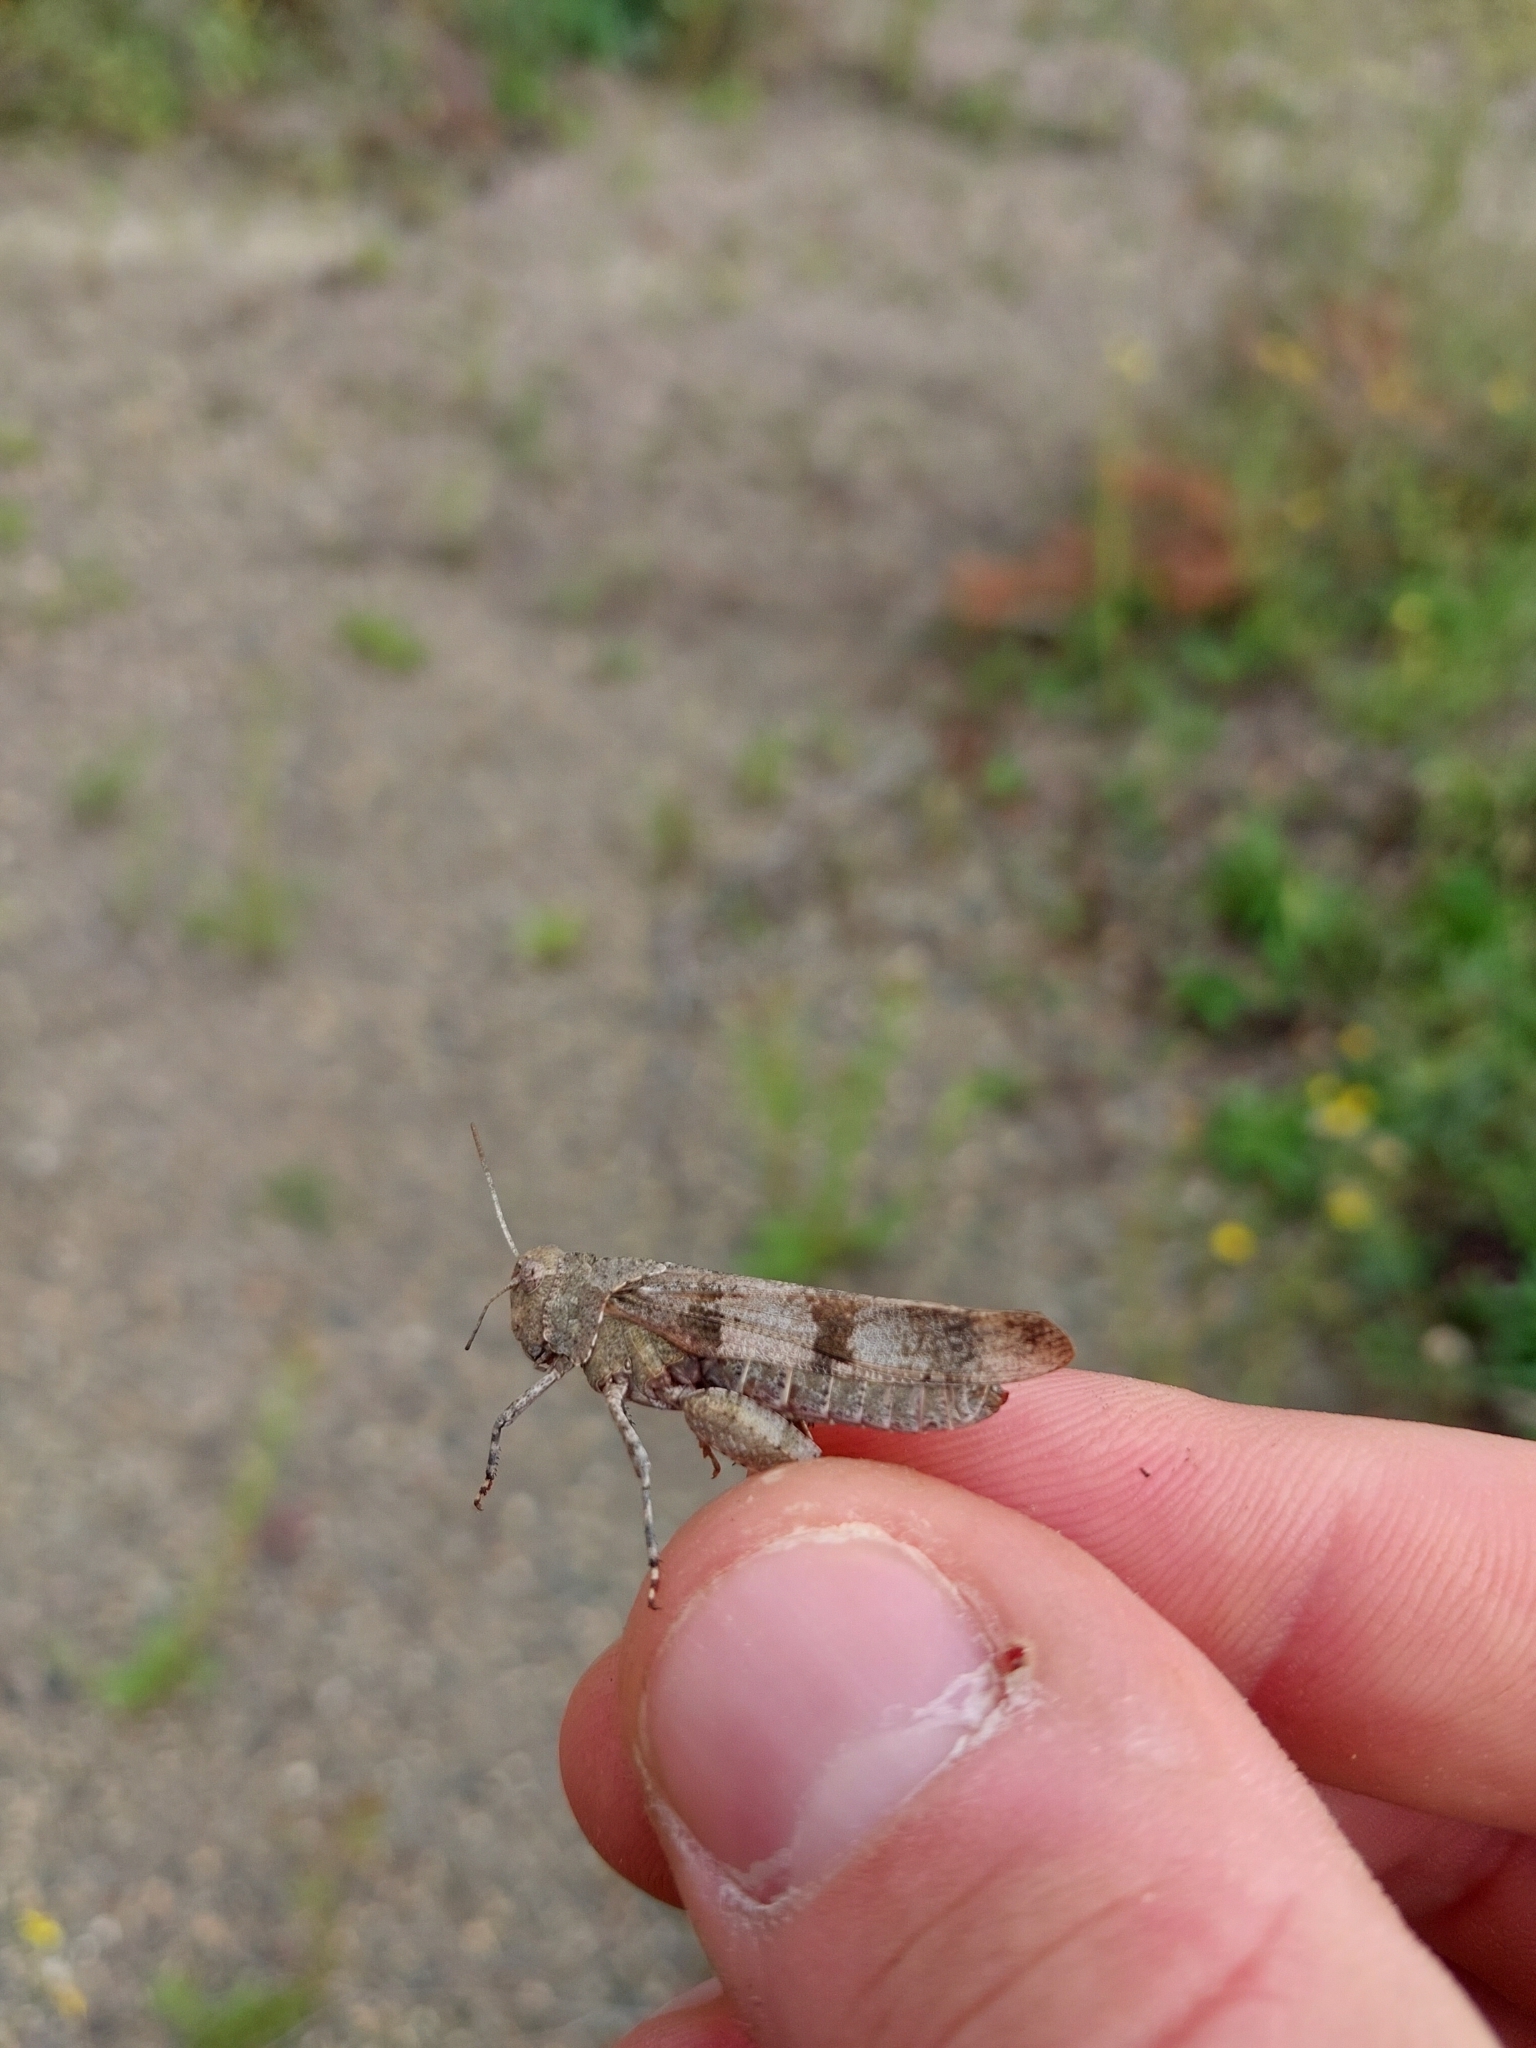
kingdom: Animalia
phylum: Arthropoda
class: Insecta
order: Orthoptera
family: Acrididae
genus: Oedipoda
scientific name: Oedipoda caerulescens
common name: Blue-winged grasshopper
